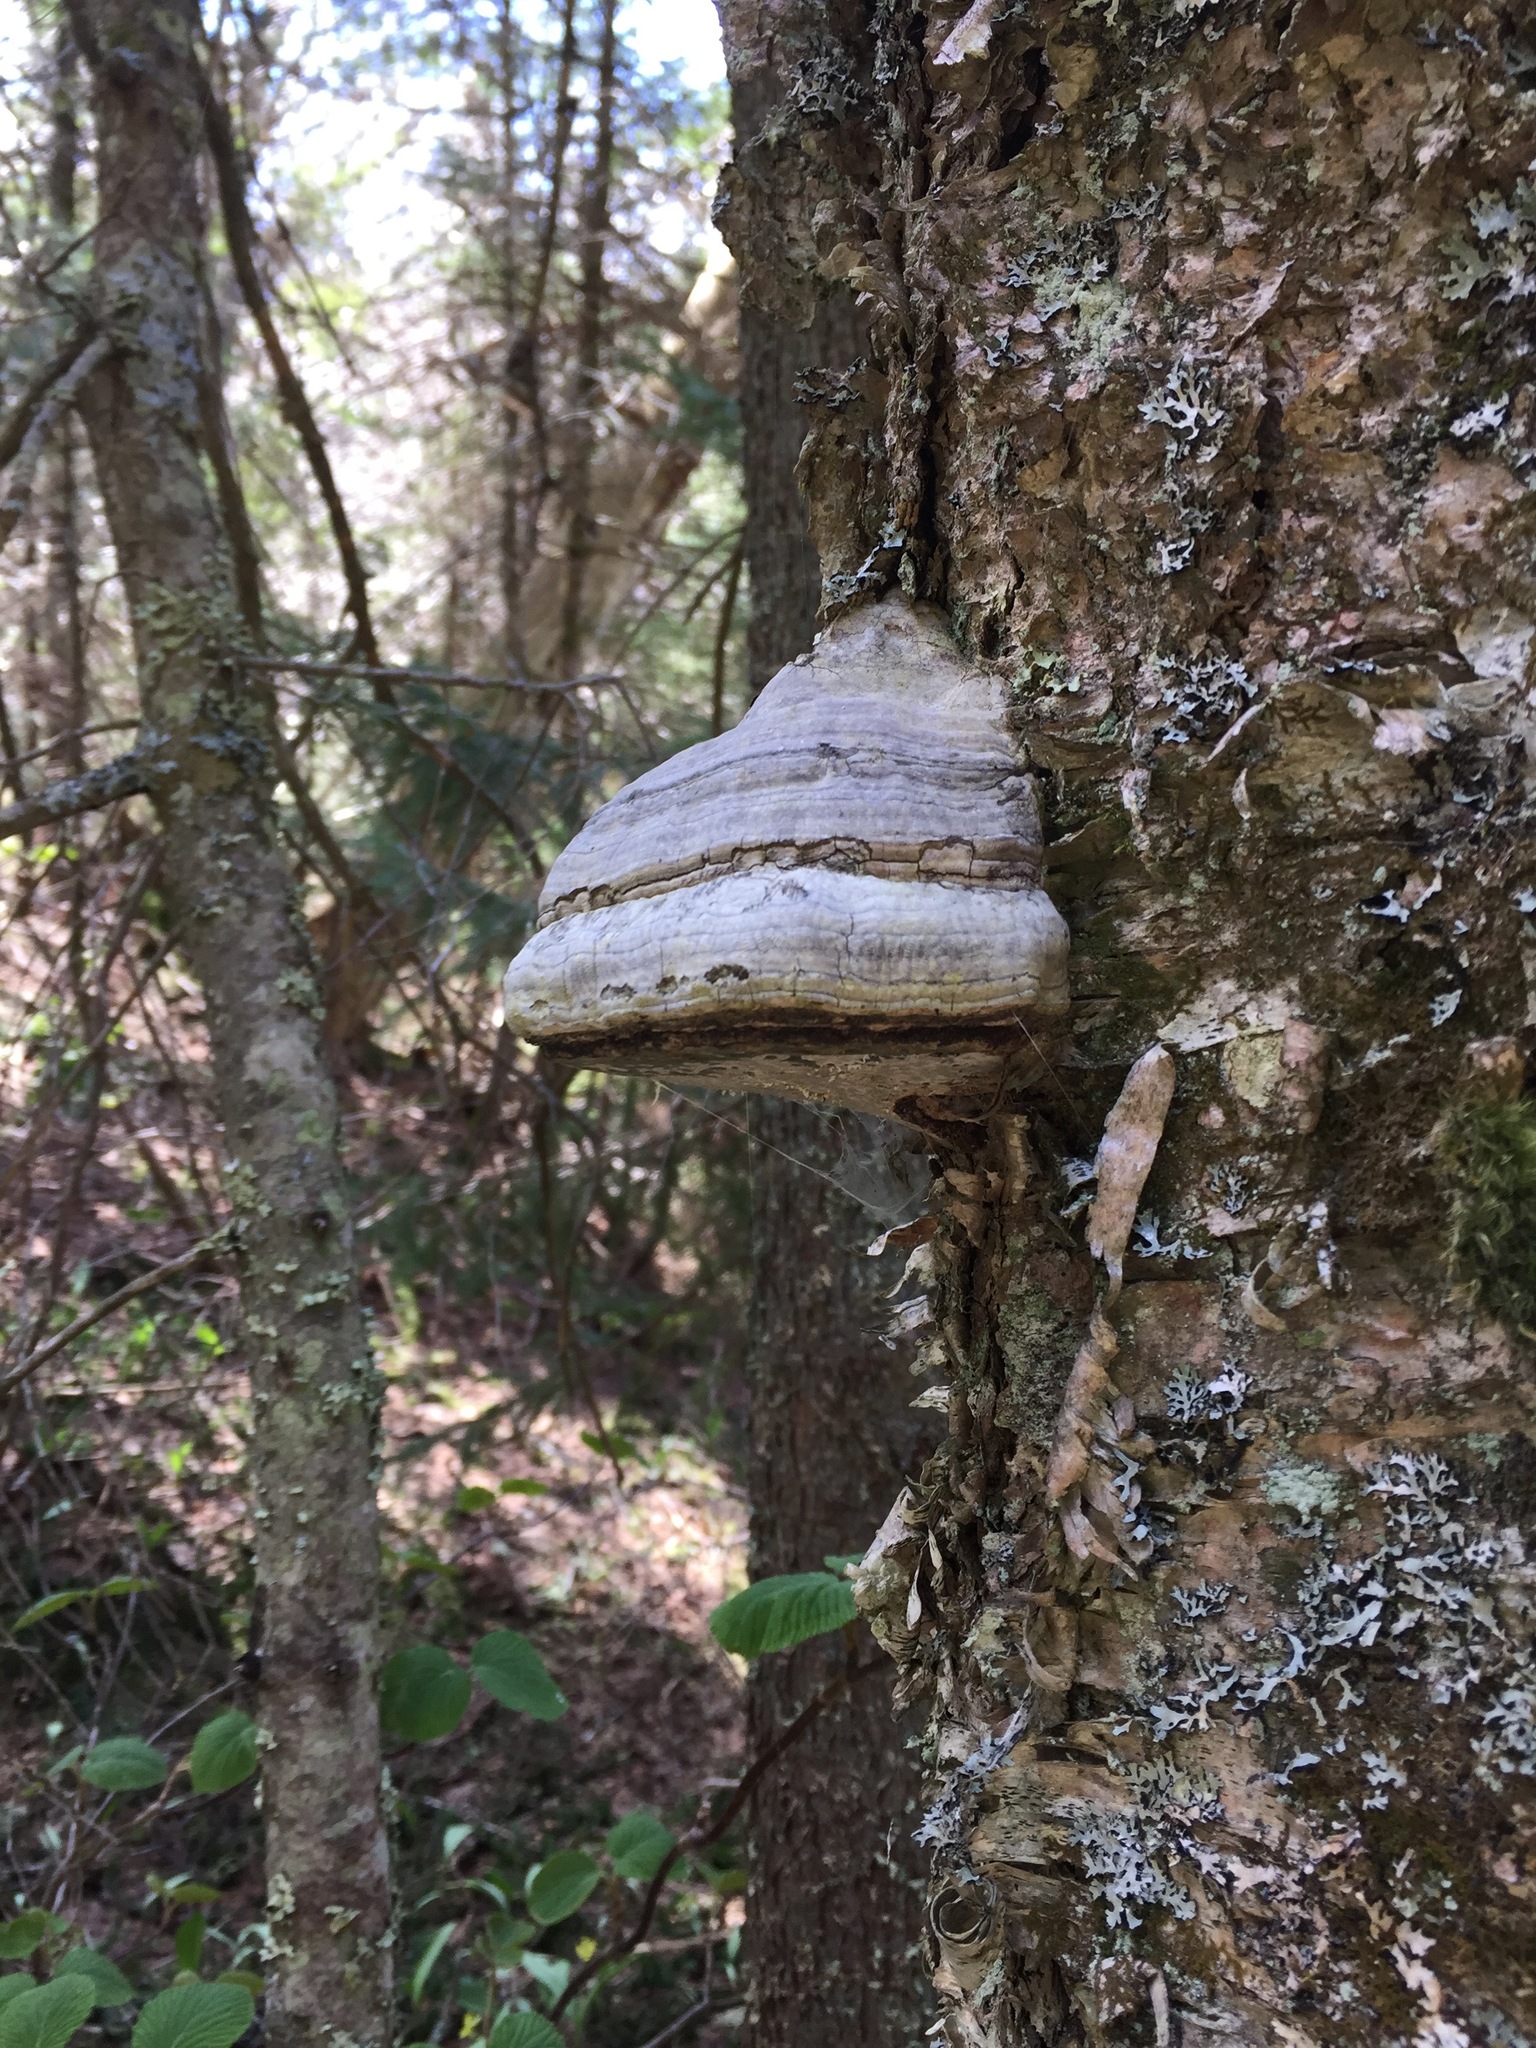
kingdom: Fungi
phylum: Basidiomycota
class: Agaricomycetes
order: Polyporales
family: Polyporaceae
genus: Fomes
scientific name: Fomes fomentarius
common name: Hoof fungus
